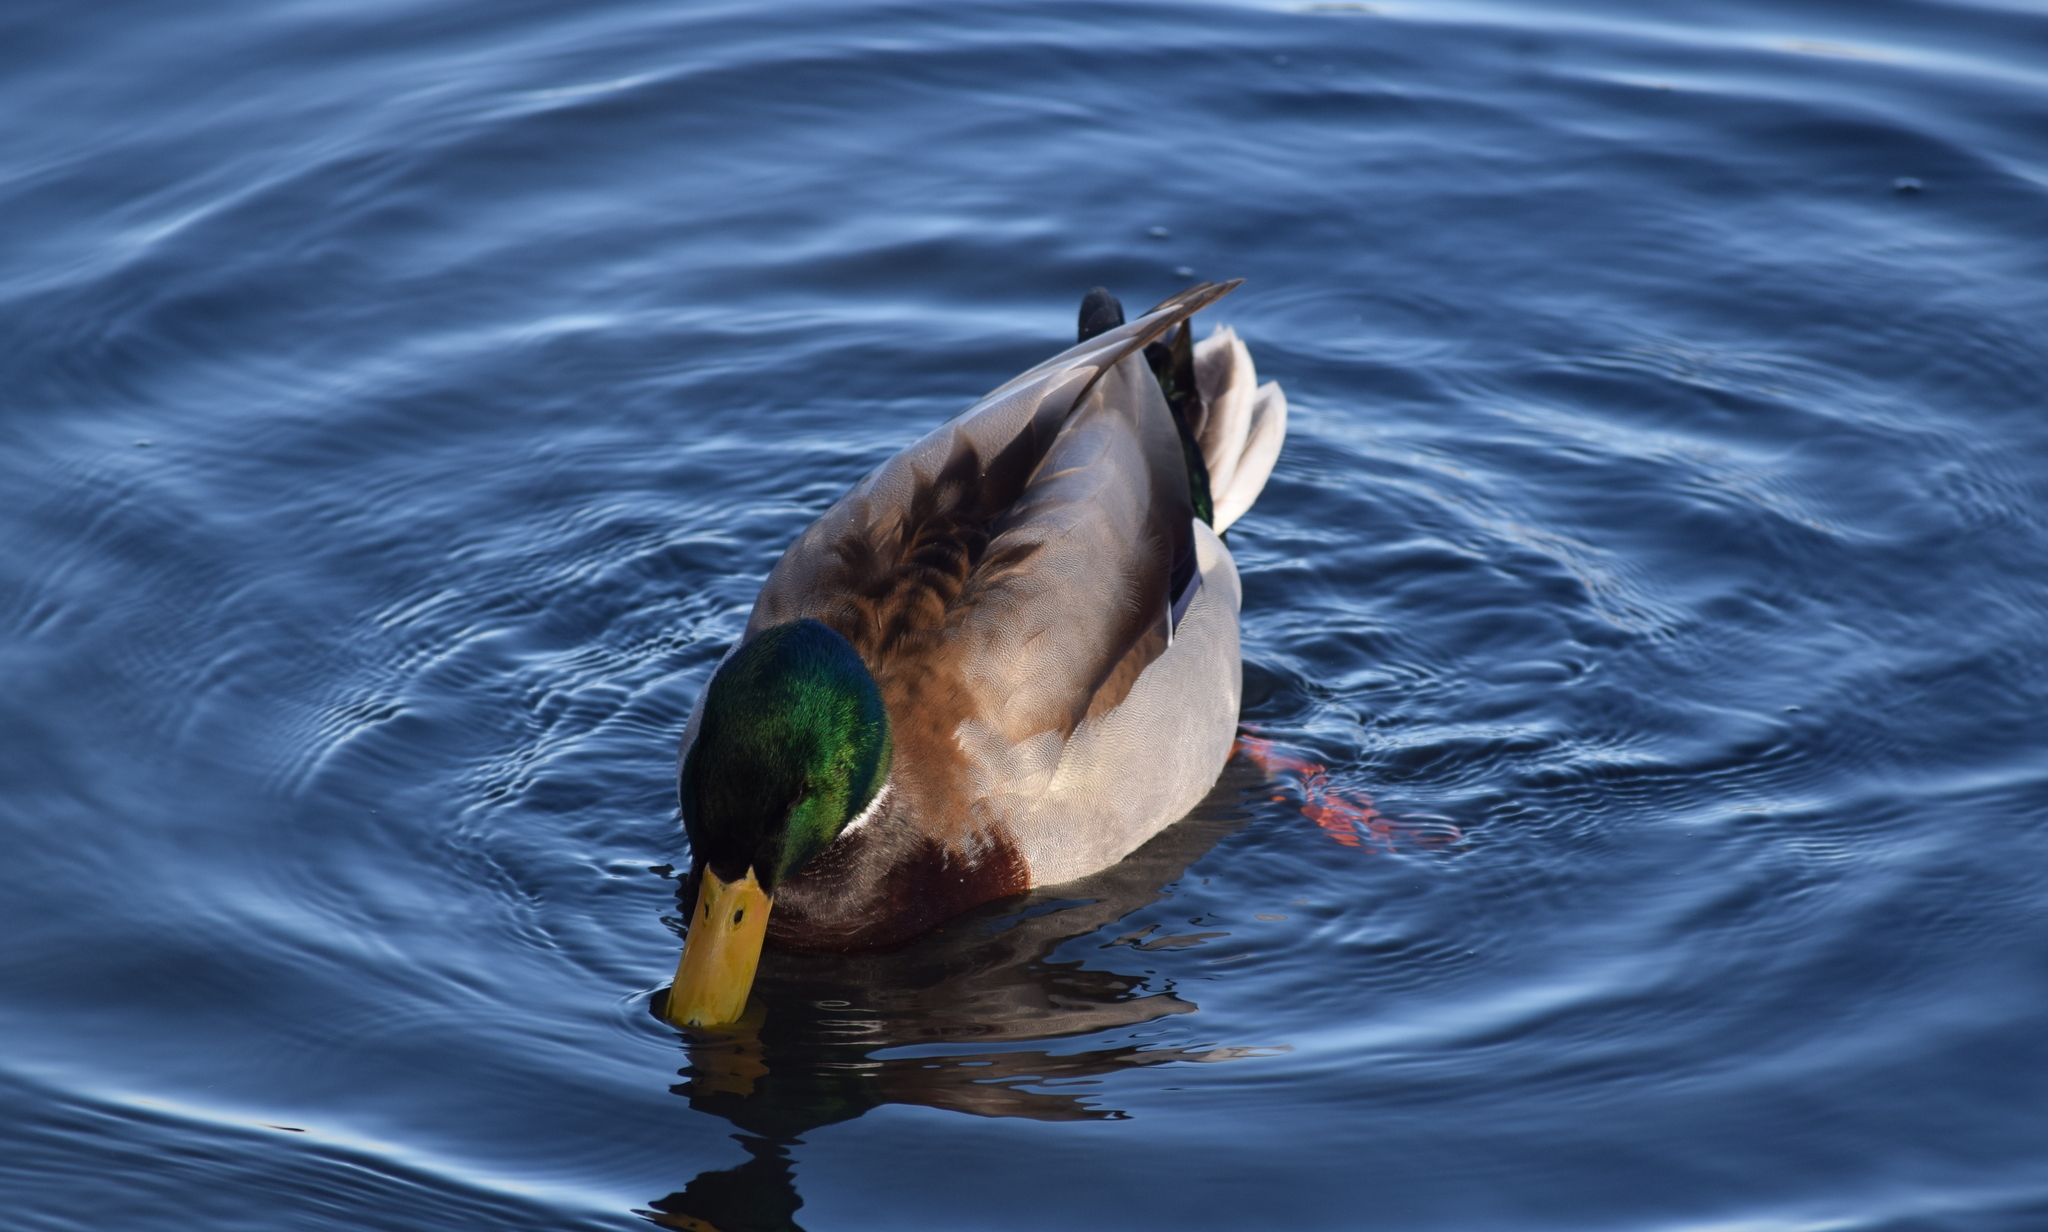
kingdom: Animalia
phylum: Chordata
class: Aves
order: Anseriformes
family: Anatidae
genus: Anas
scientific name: Anas platyrhynchos
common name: Mallard
